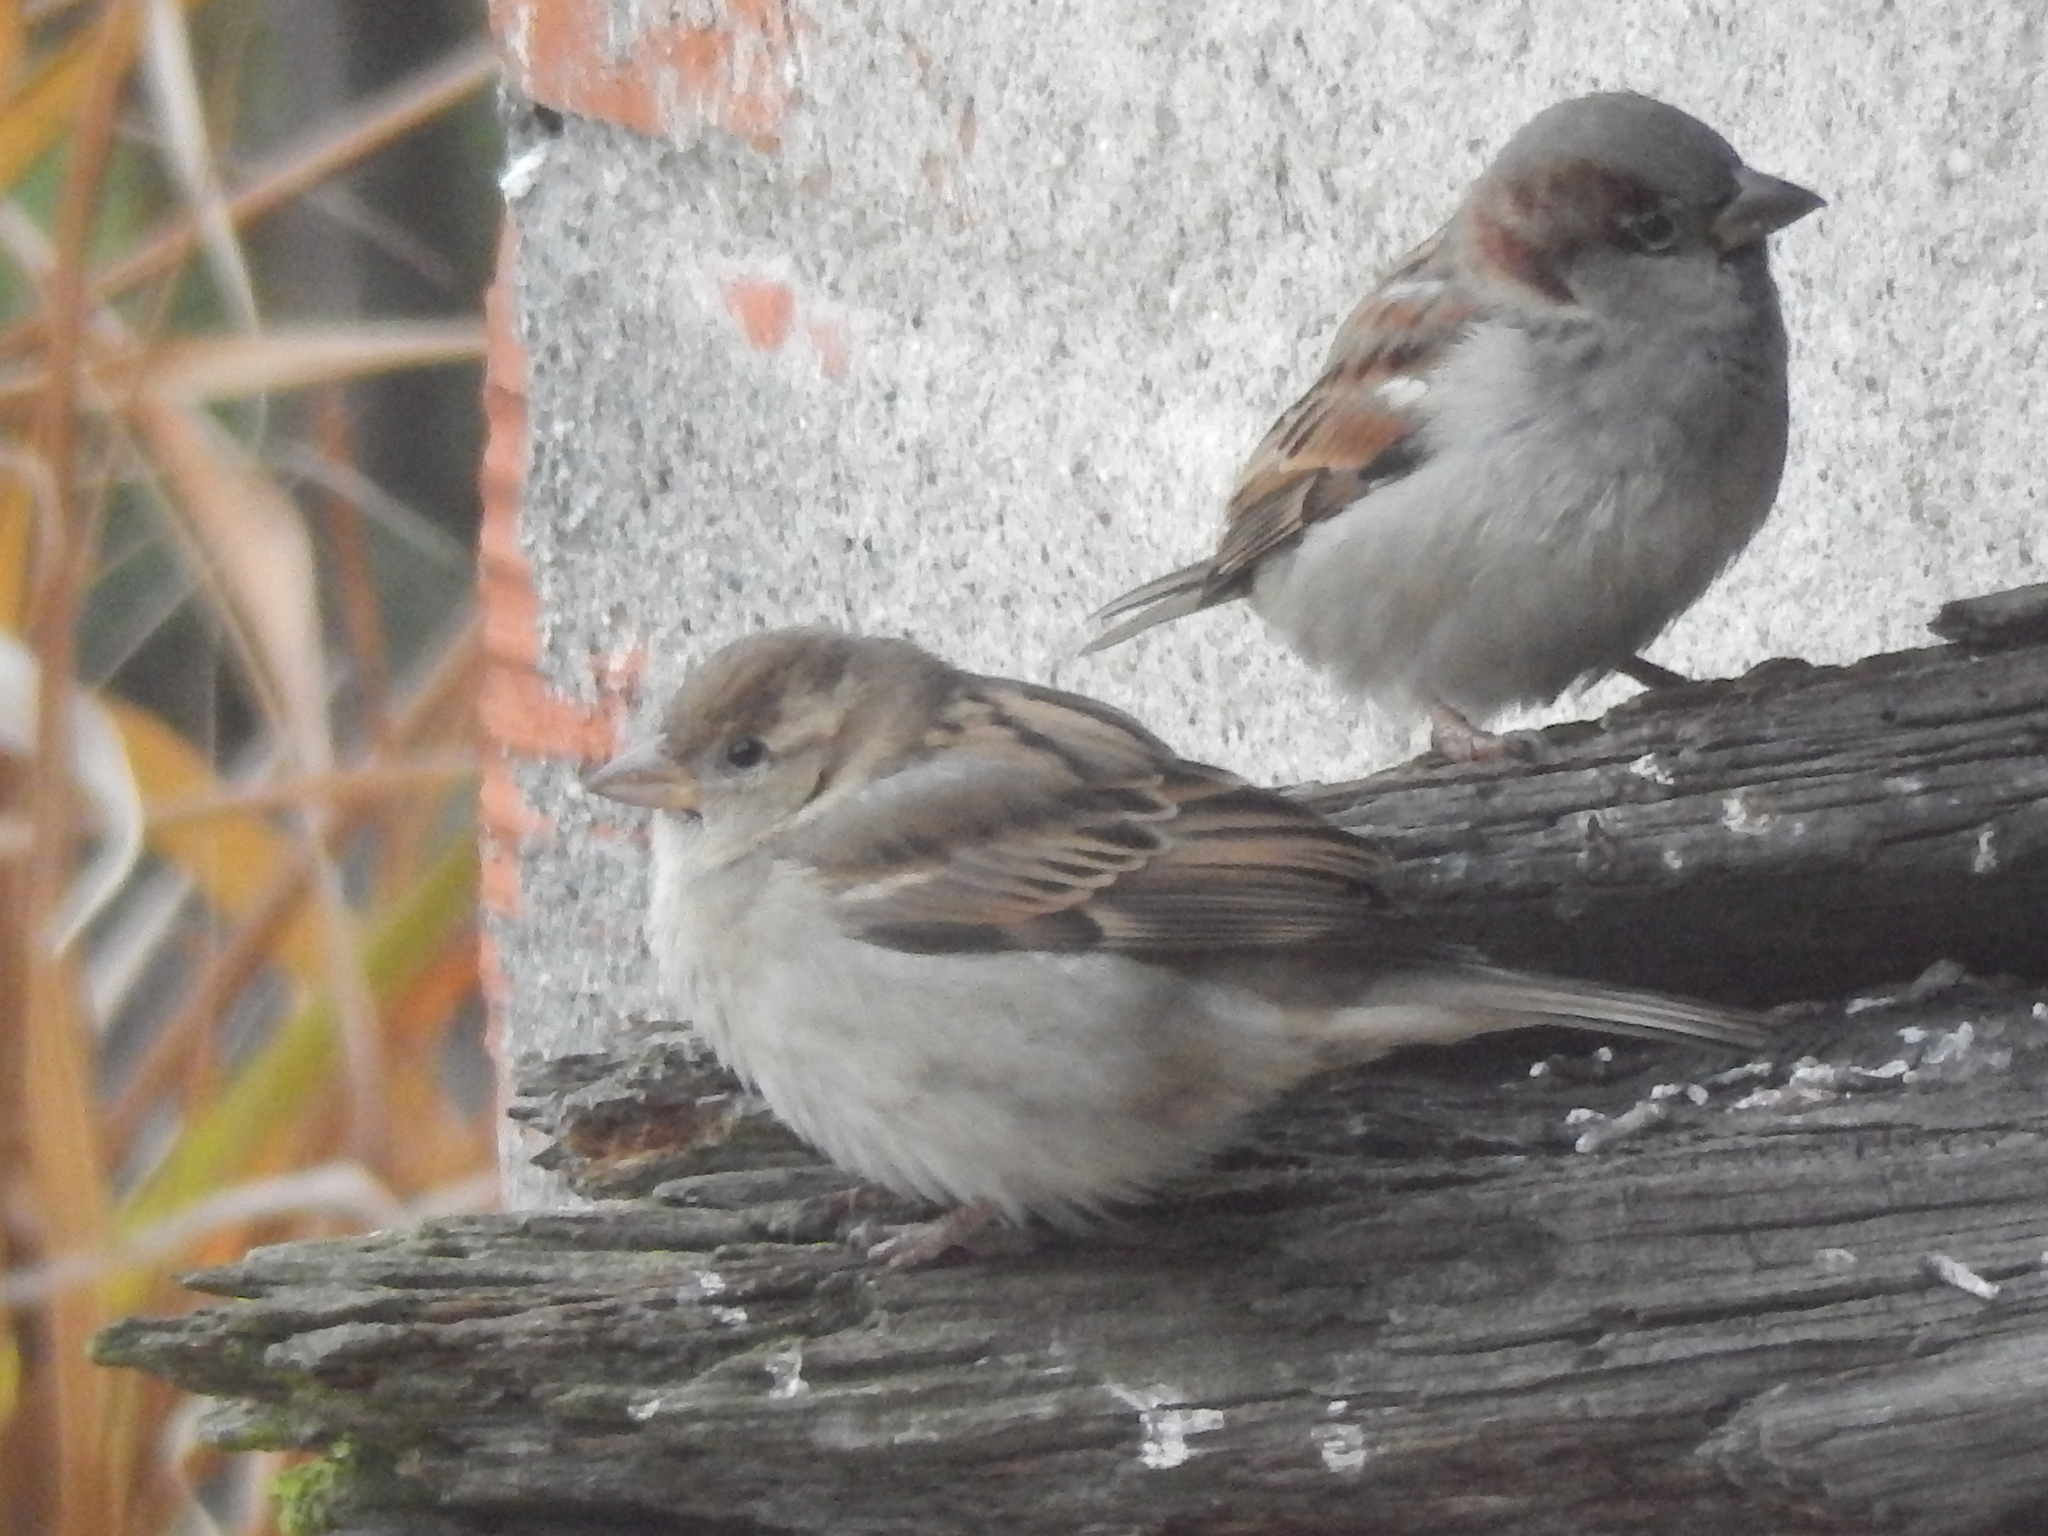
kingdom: Animalia
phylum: Chordata
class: Aves
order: Passeriformes
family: Passeridae
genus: Passer
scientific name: Passer domesticus
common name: House sparrow
